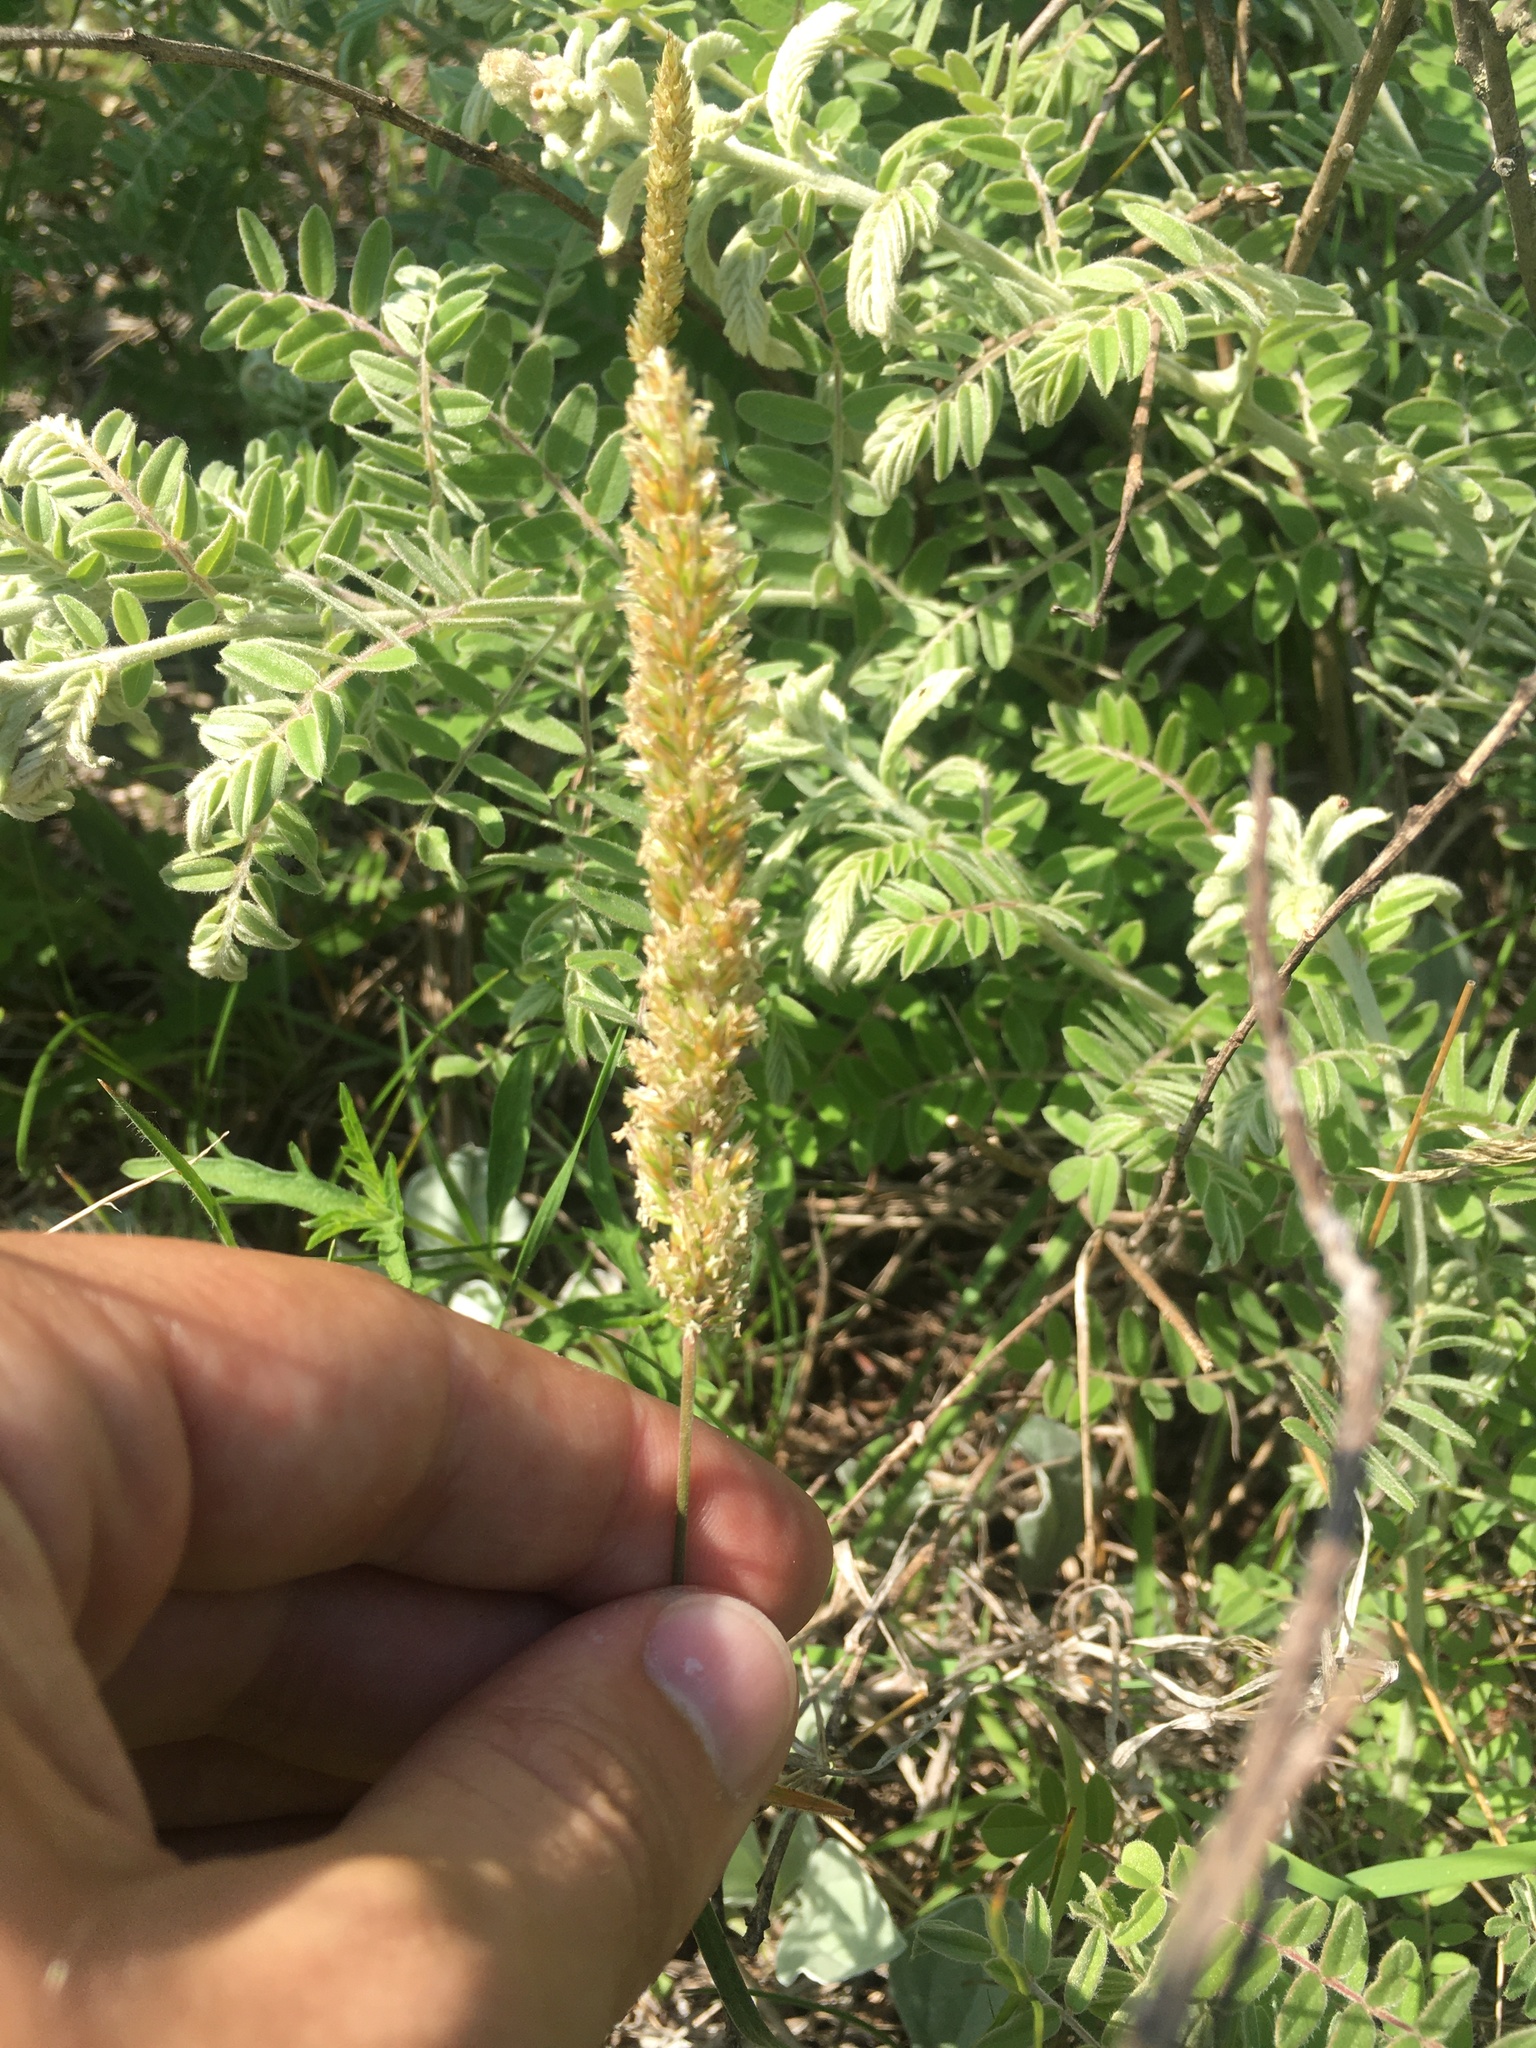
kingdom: Plantae
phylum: Tracheophyta
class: Liliopsida
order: Poales
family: Poaceae
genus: Koeleria
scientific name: Koeleria macrantha
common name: Crested hair-grass
